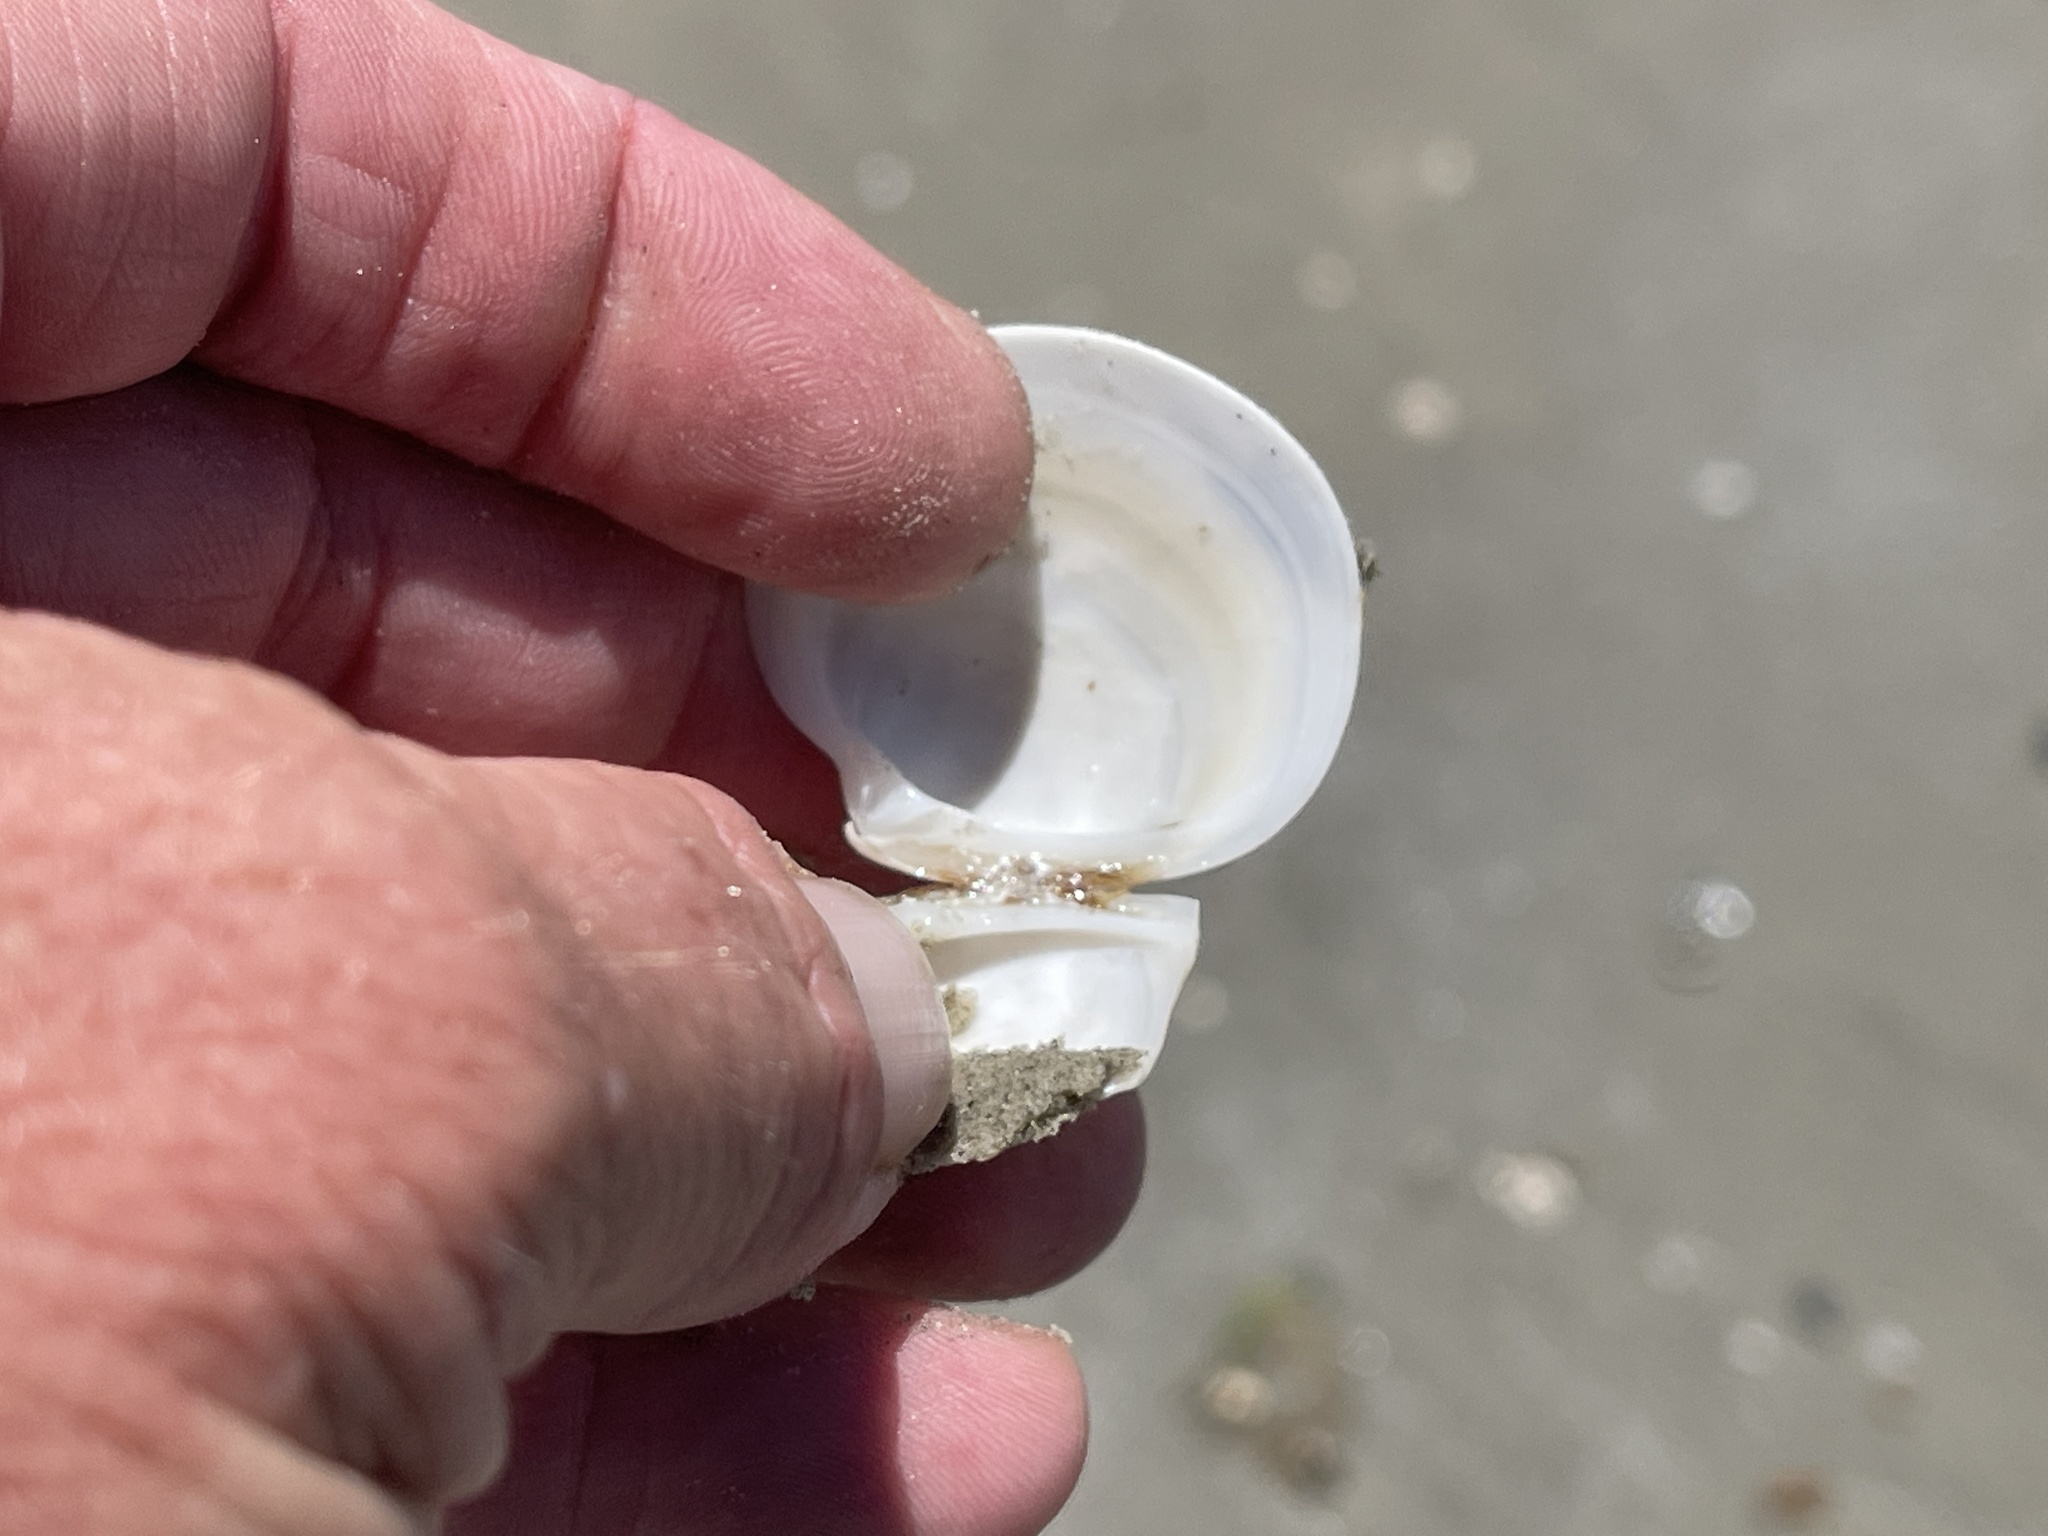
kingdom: Animalia
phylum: Mollusca
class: Bivalvia
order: Venerida
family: Veneridae
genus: Dosinia
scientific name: Dosinia discus
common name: Disk dosinia
